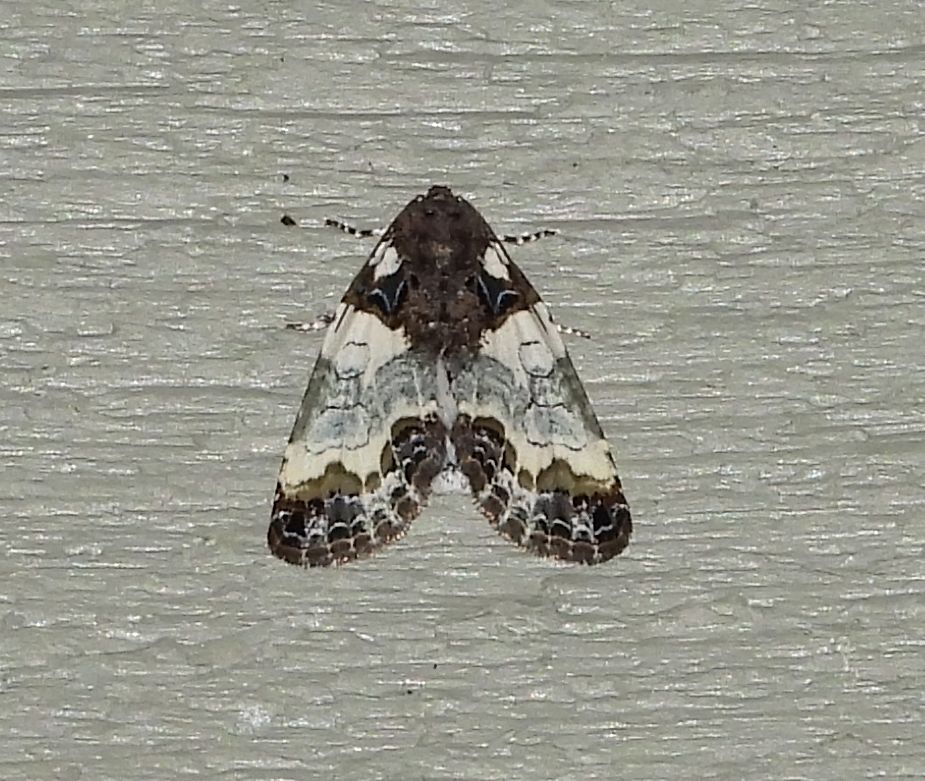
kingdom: Animalia
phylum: Arthropoda
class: Insecta
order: Lepidoptera
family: Noctuidae
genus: Cerma
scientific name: Cerma cerintha
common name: Tufted bird-dropping moth
